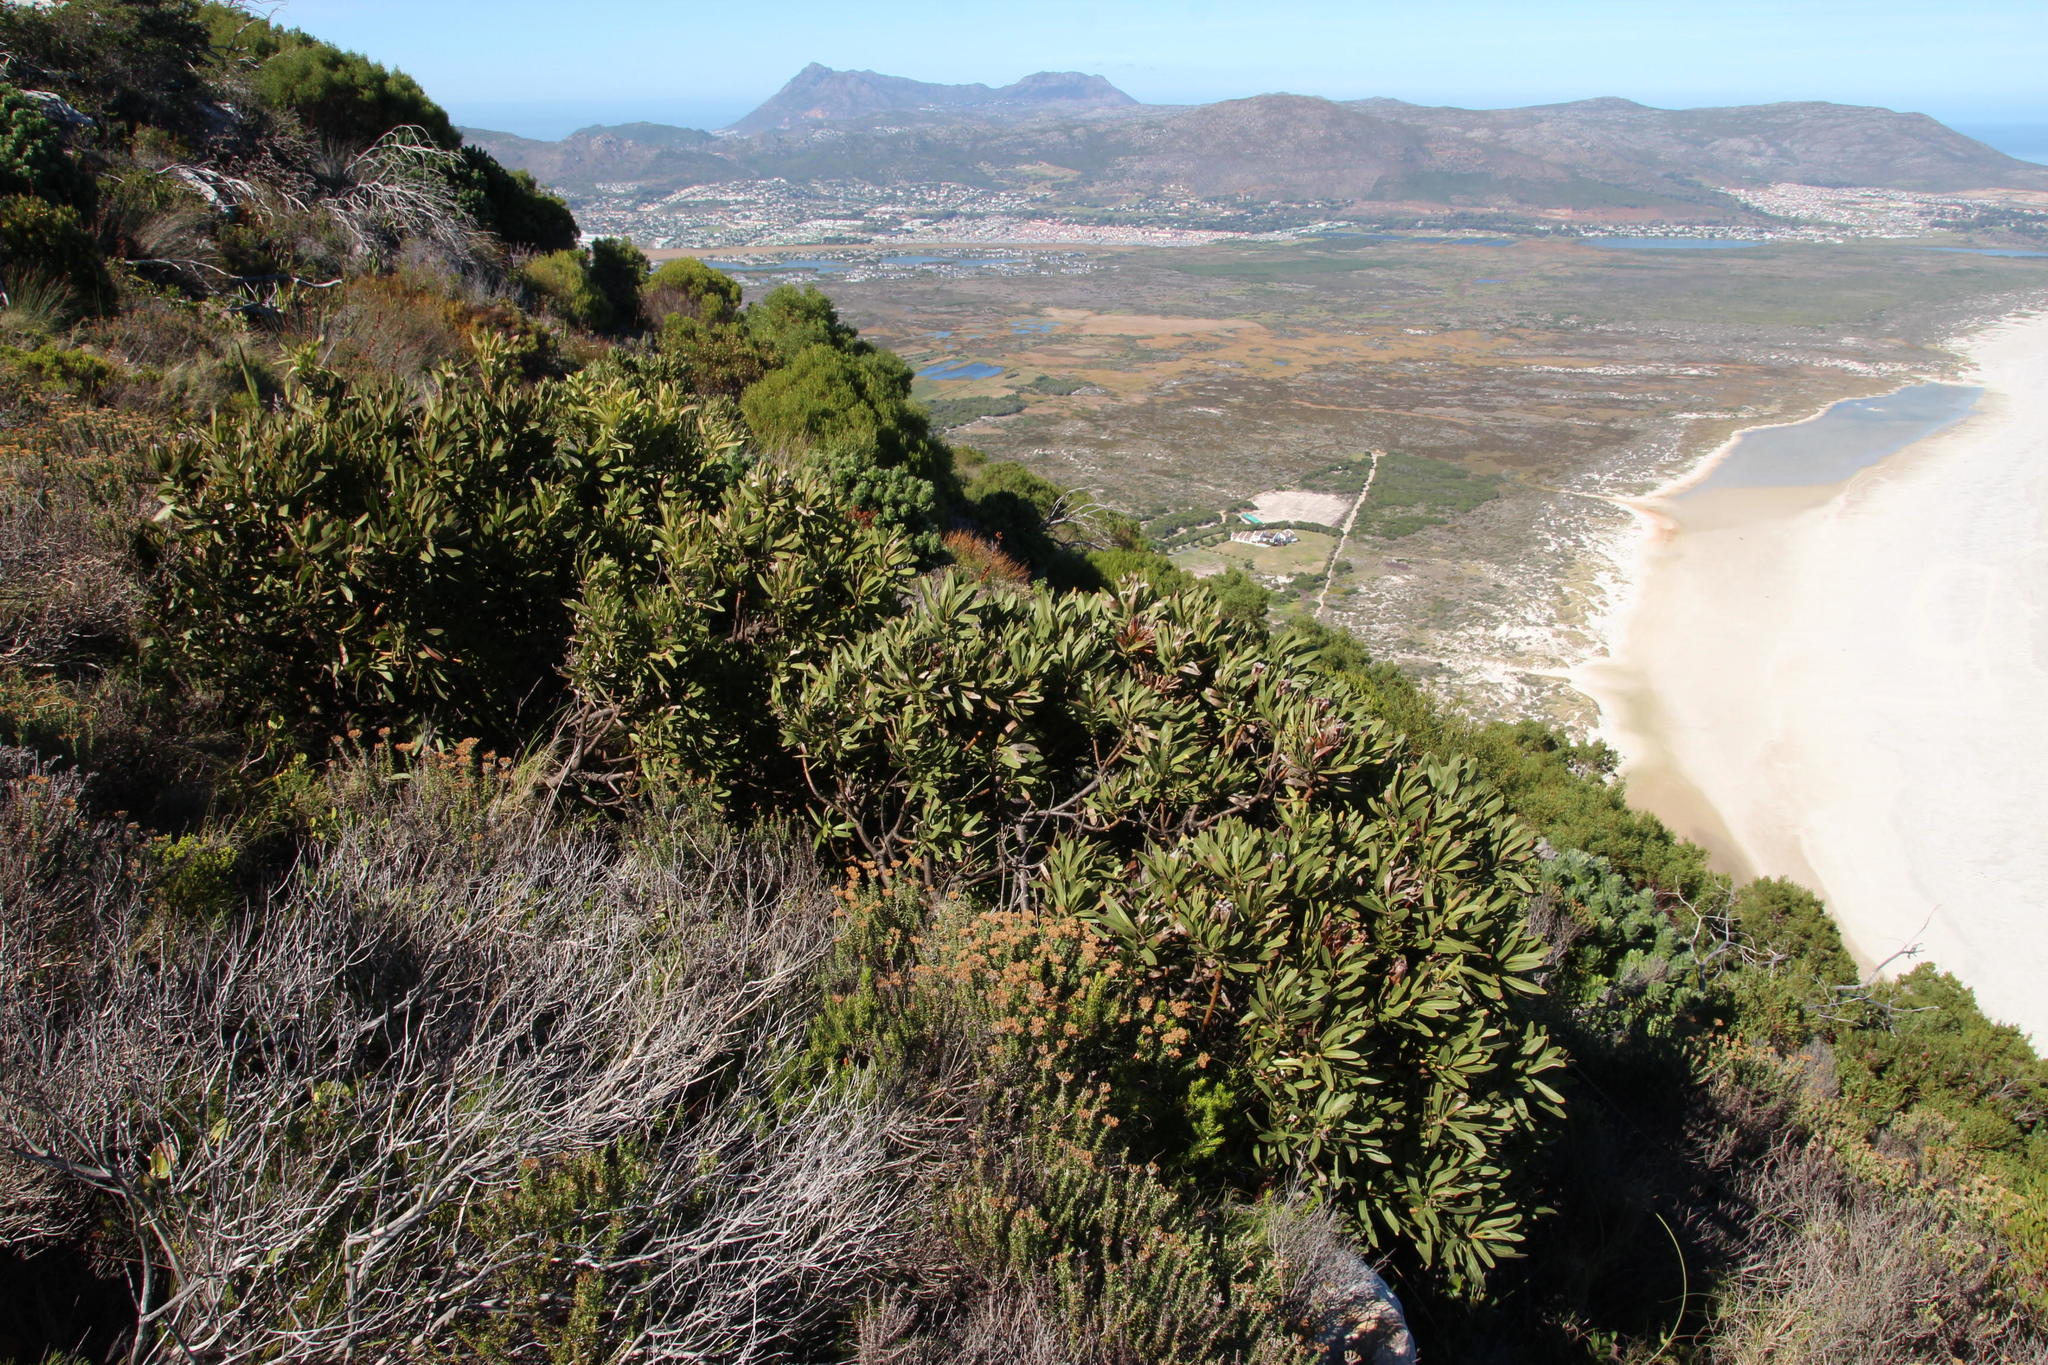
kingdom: Plantae
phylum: Tracheophyta
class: Magnoliopsida
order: Proteales
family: Proteaceae
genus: Protea
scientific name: Protea lepidocarpodendron
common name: Black-bearded protea
